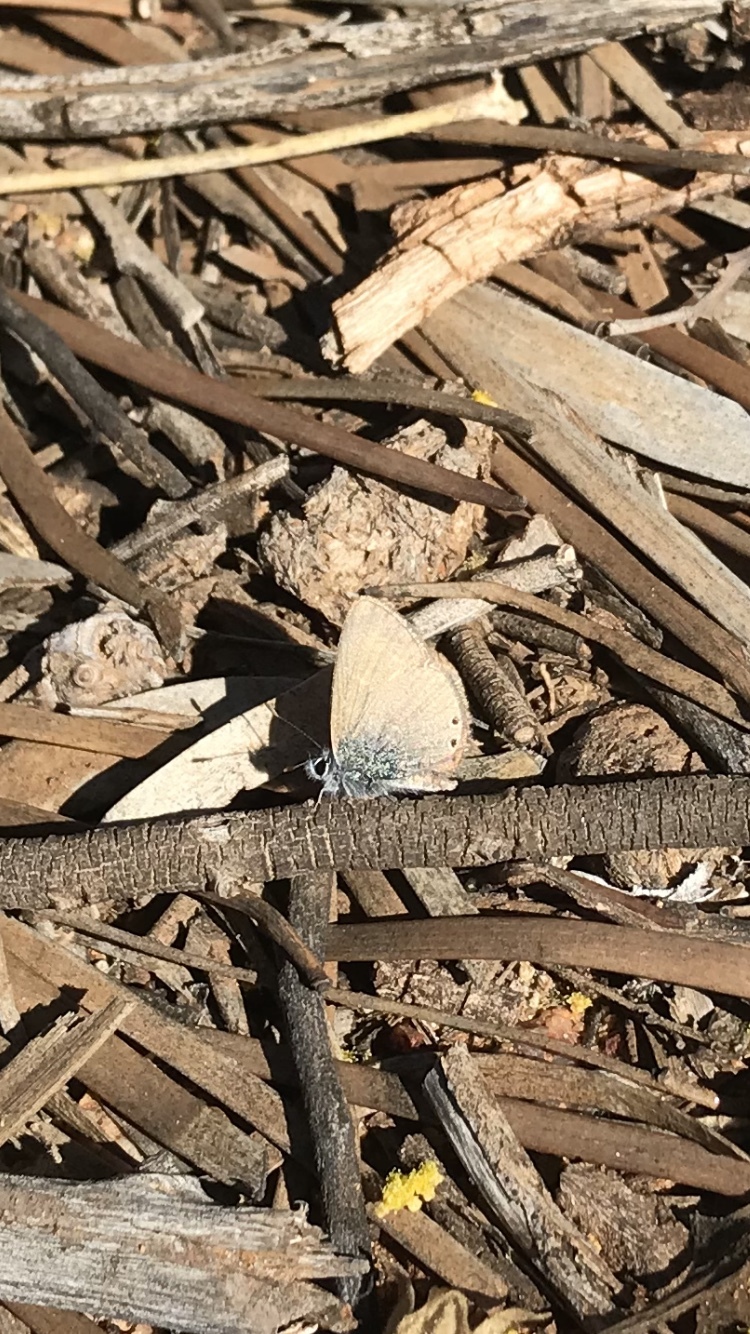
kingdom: Animalia
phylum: Arthropoda
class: Insecta
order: Lepidoptera
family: Lycaenidae
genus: Nacaduba
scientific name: Nacaduba biocellata
